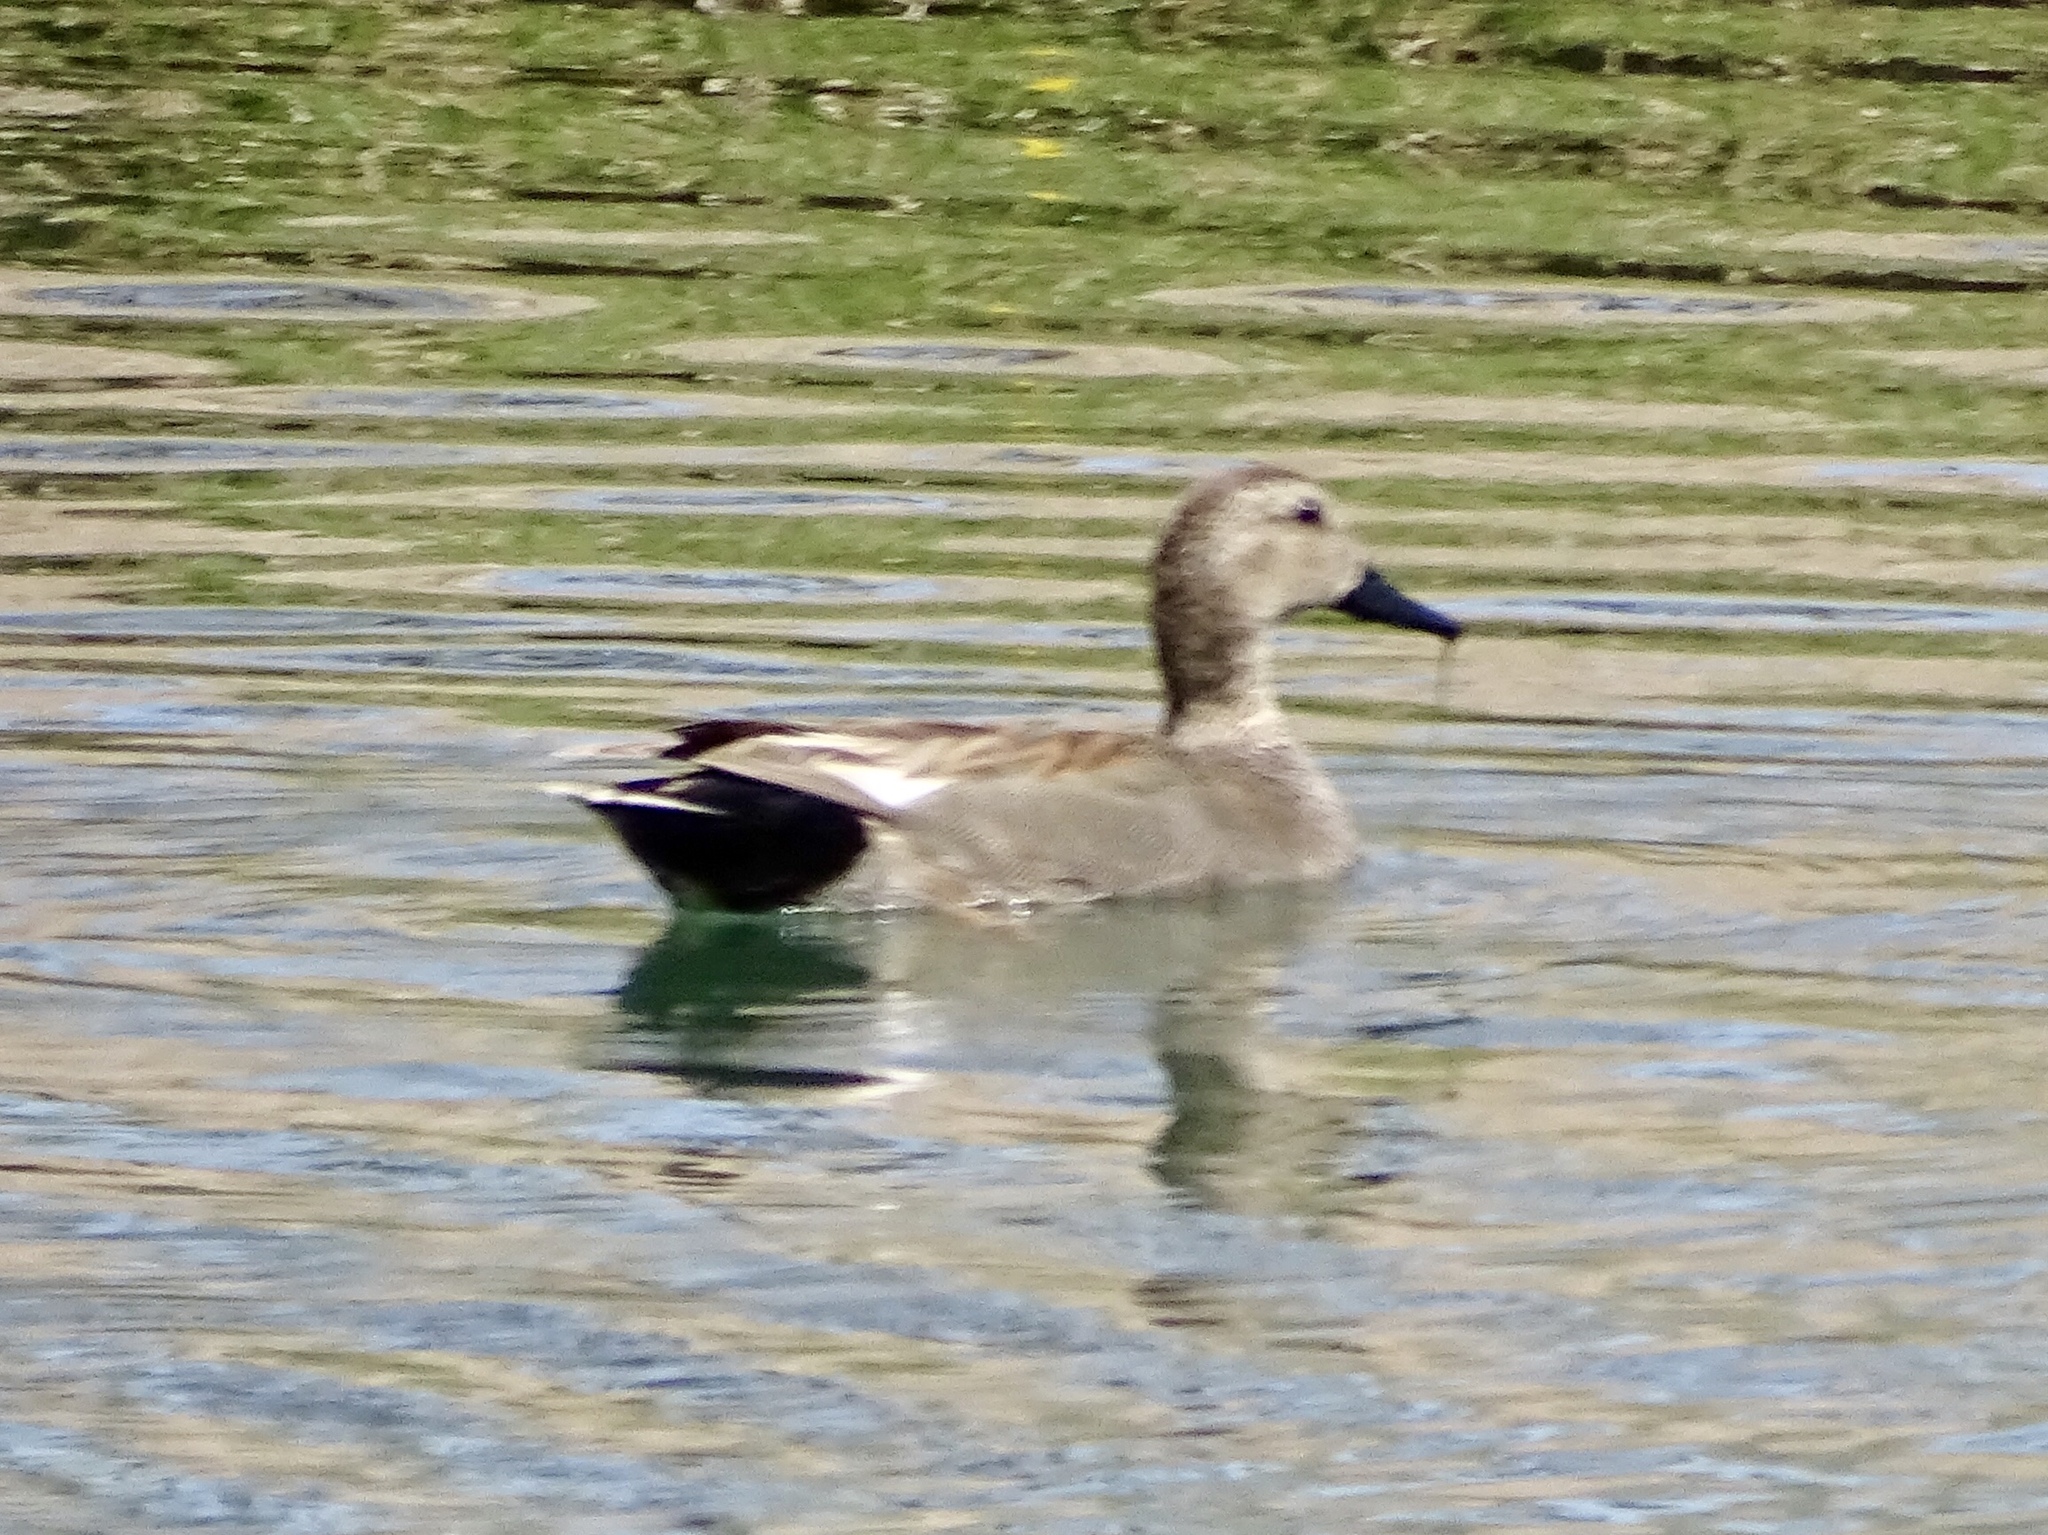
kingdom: Animalia
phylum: Chordata
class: Aves
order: Anseriformes
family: Anatidae
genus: Mareca
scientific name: Mareca strepera
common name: Gadwall
